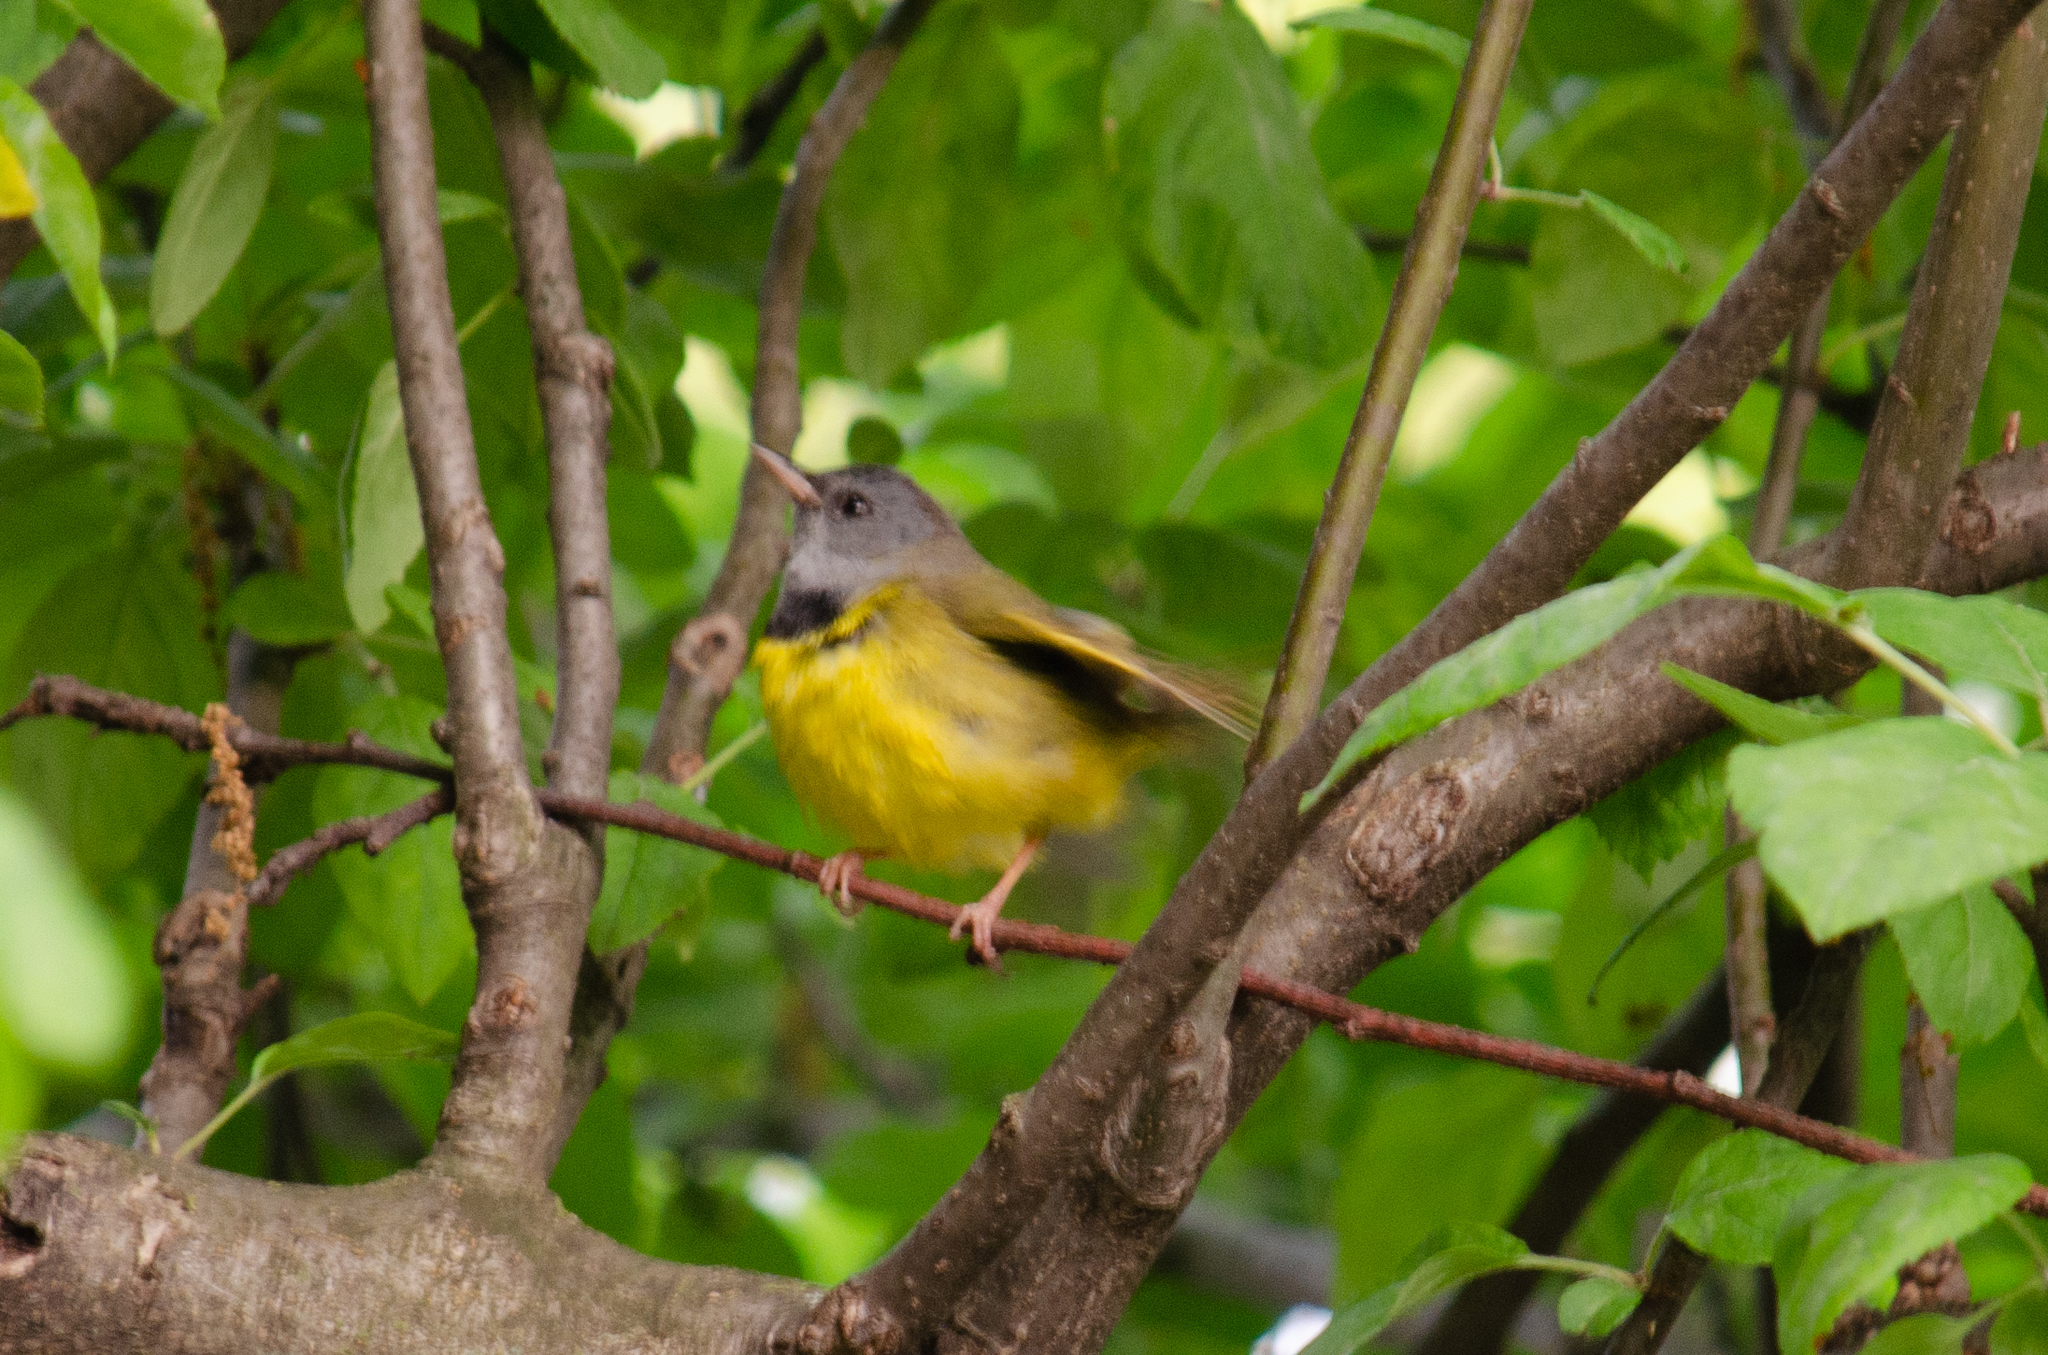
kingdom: Animalia
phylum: Chordata
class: Aves
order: Passeriformes
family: Parulidae
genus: Geothlypis
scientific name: Geothlypis philadelphia
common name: Mourning warbler
